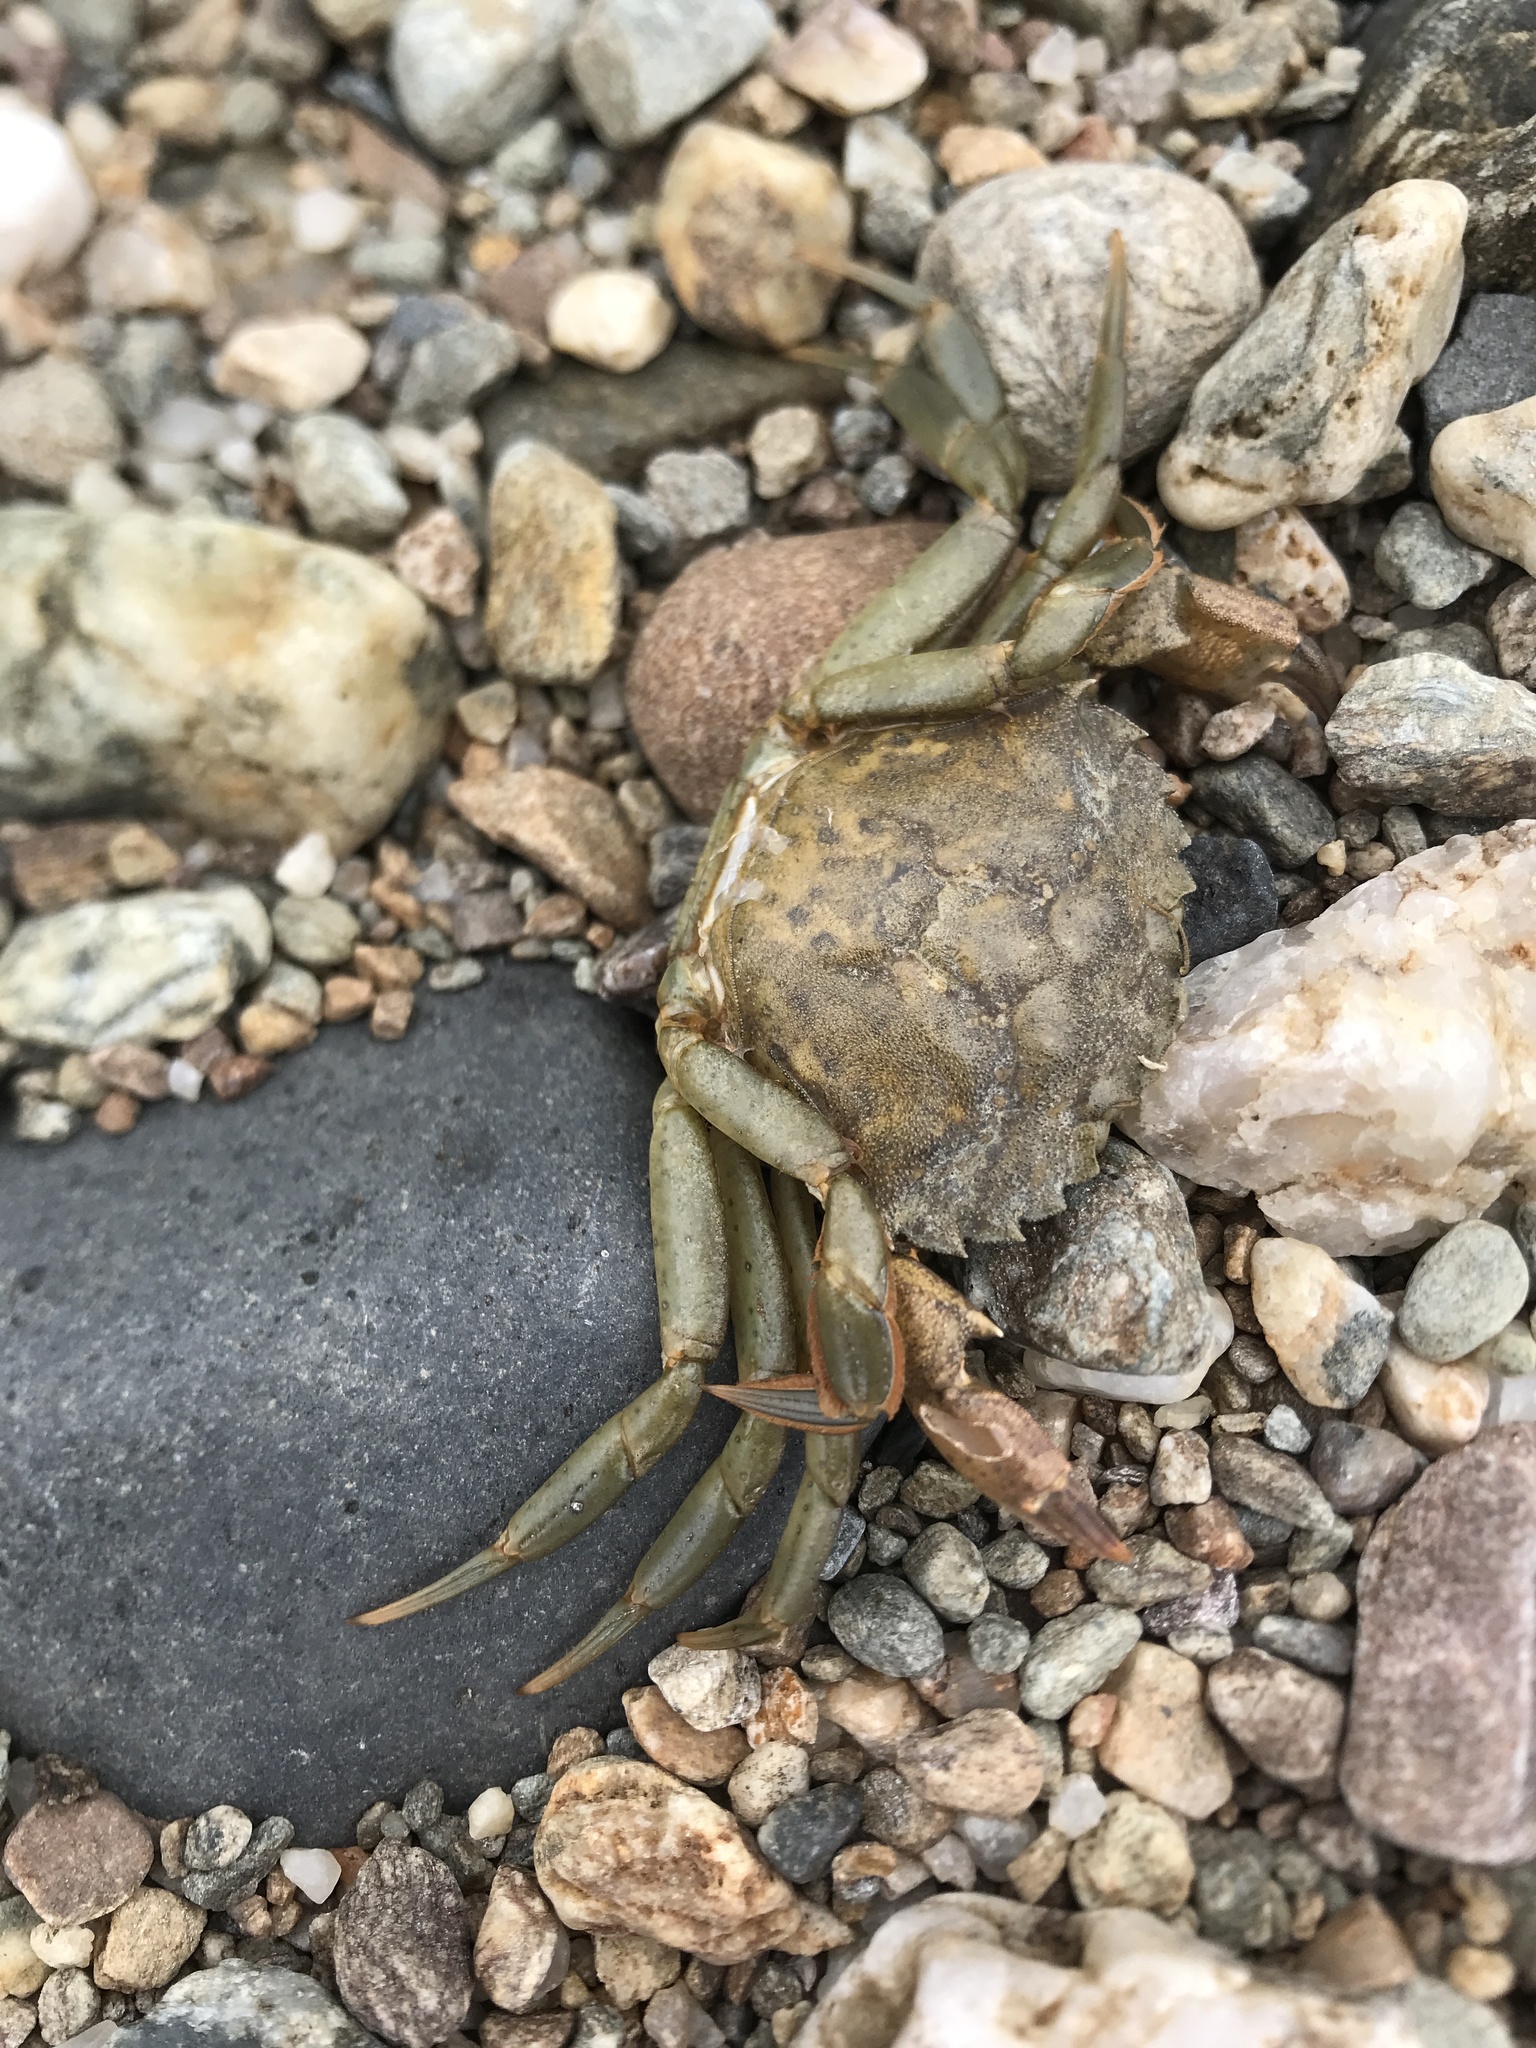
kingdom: Animalia
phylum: Arthropoda
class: Malacostraca
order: Decapoda
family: Carcinidae
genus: Carcinus
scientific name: Carcinus maenas
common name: European green crab
